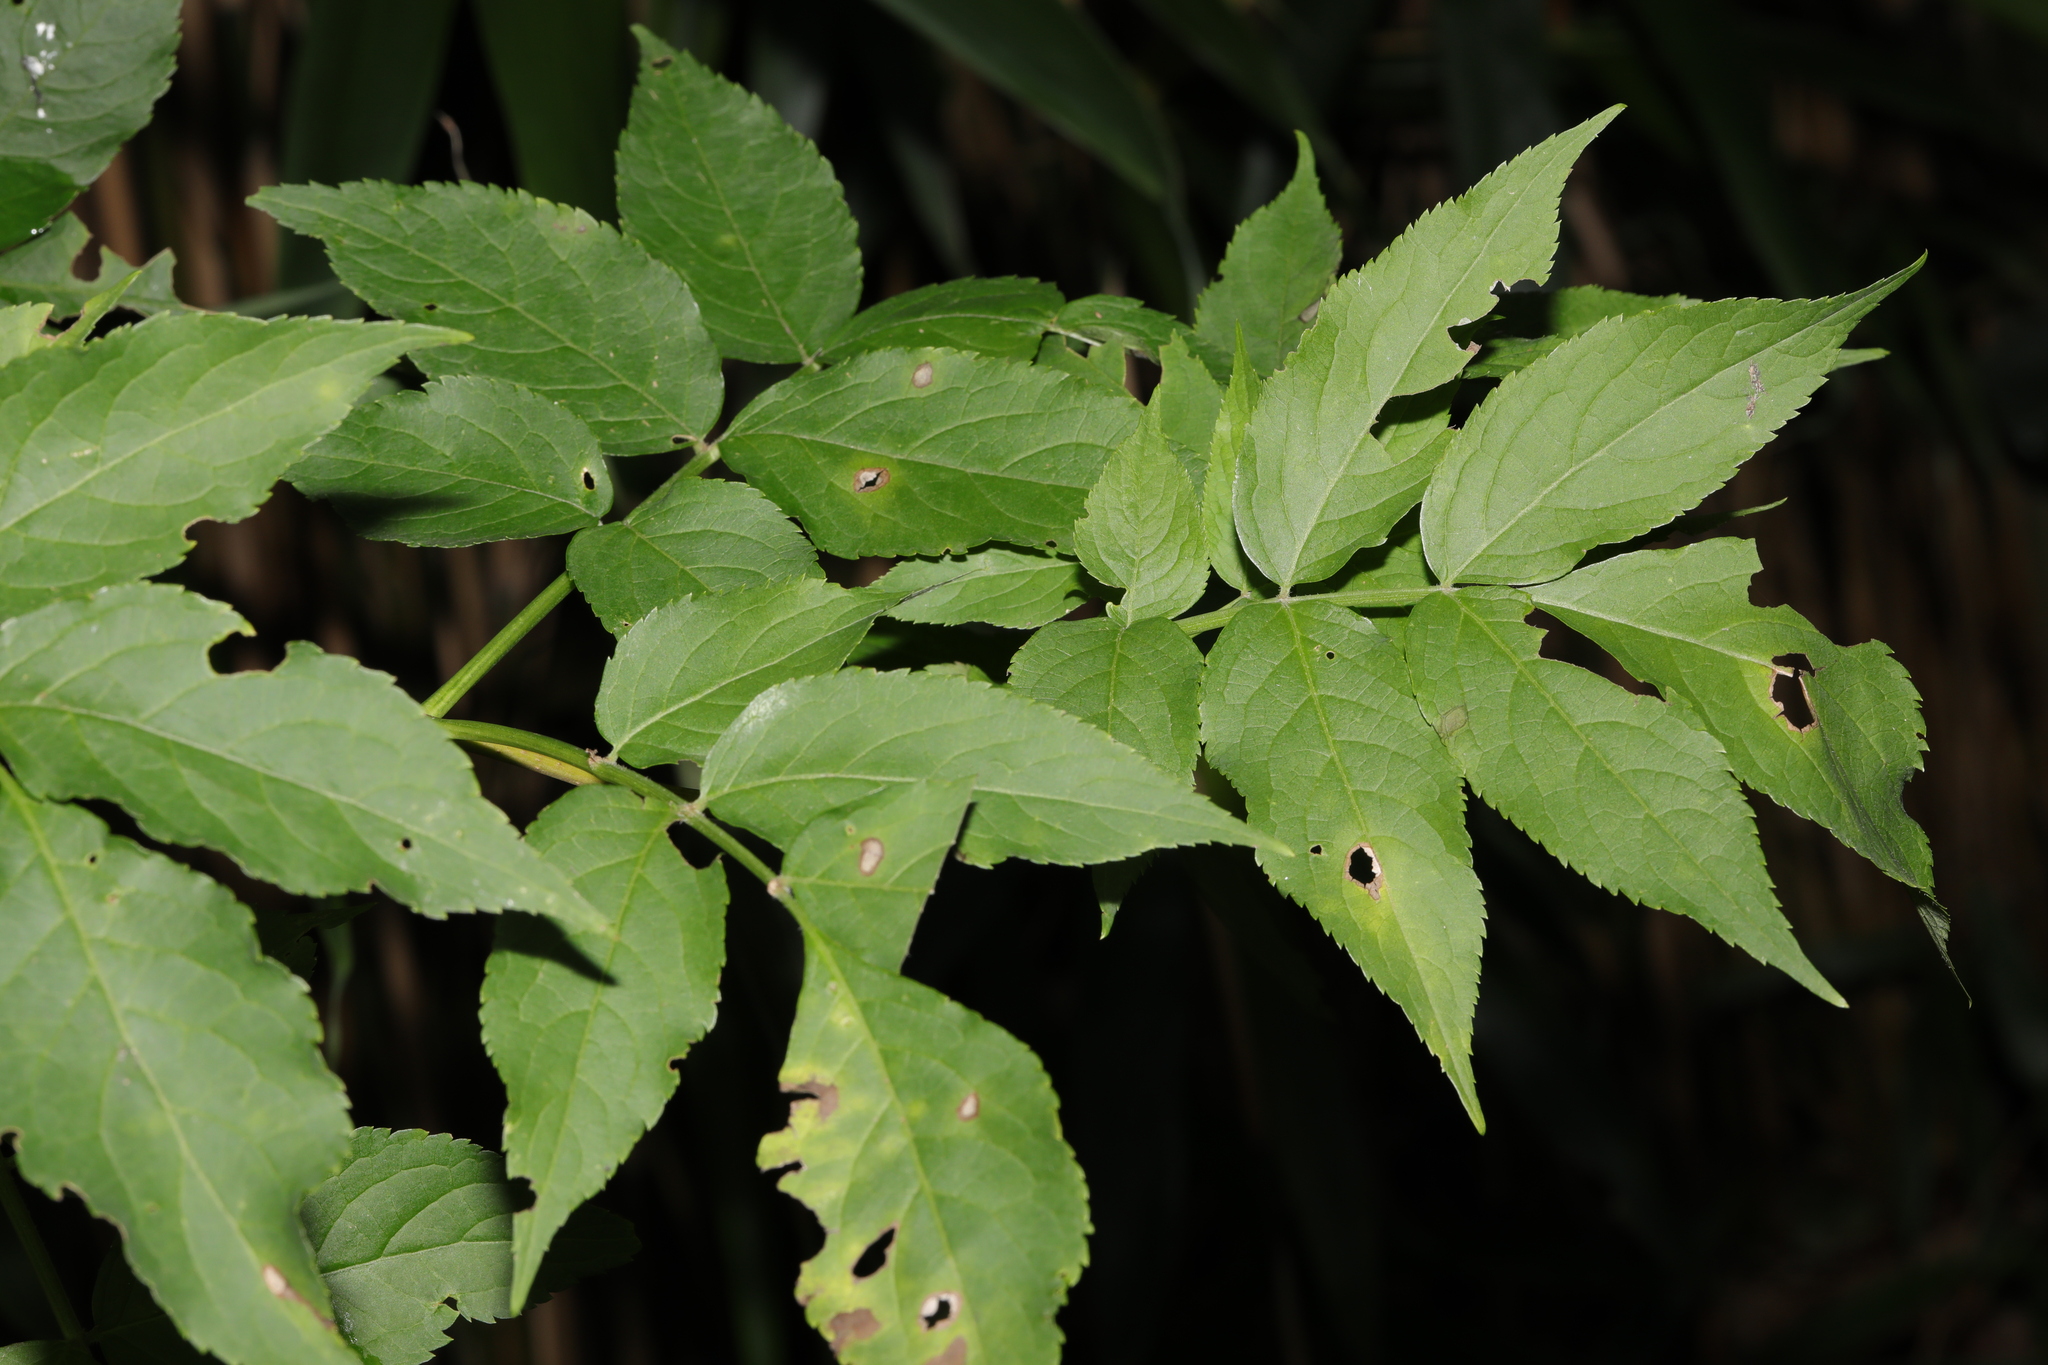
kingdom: Plantae
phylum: Tracheophyta
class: Magnoliopsida
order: Dipsacales
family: Viburnaceae
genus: Sambucus
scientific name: Sambucus nigra
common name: Elder
